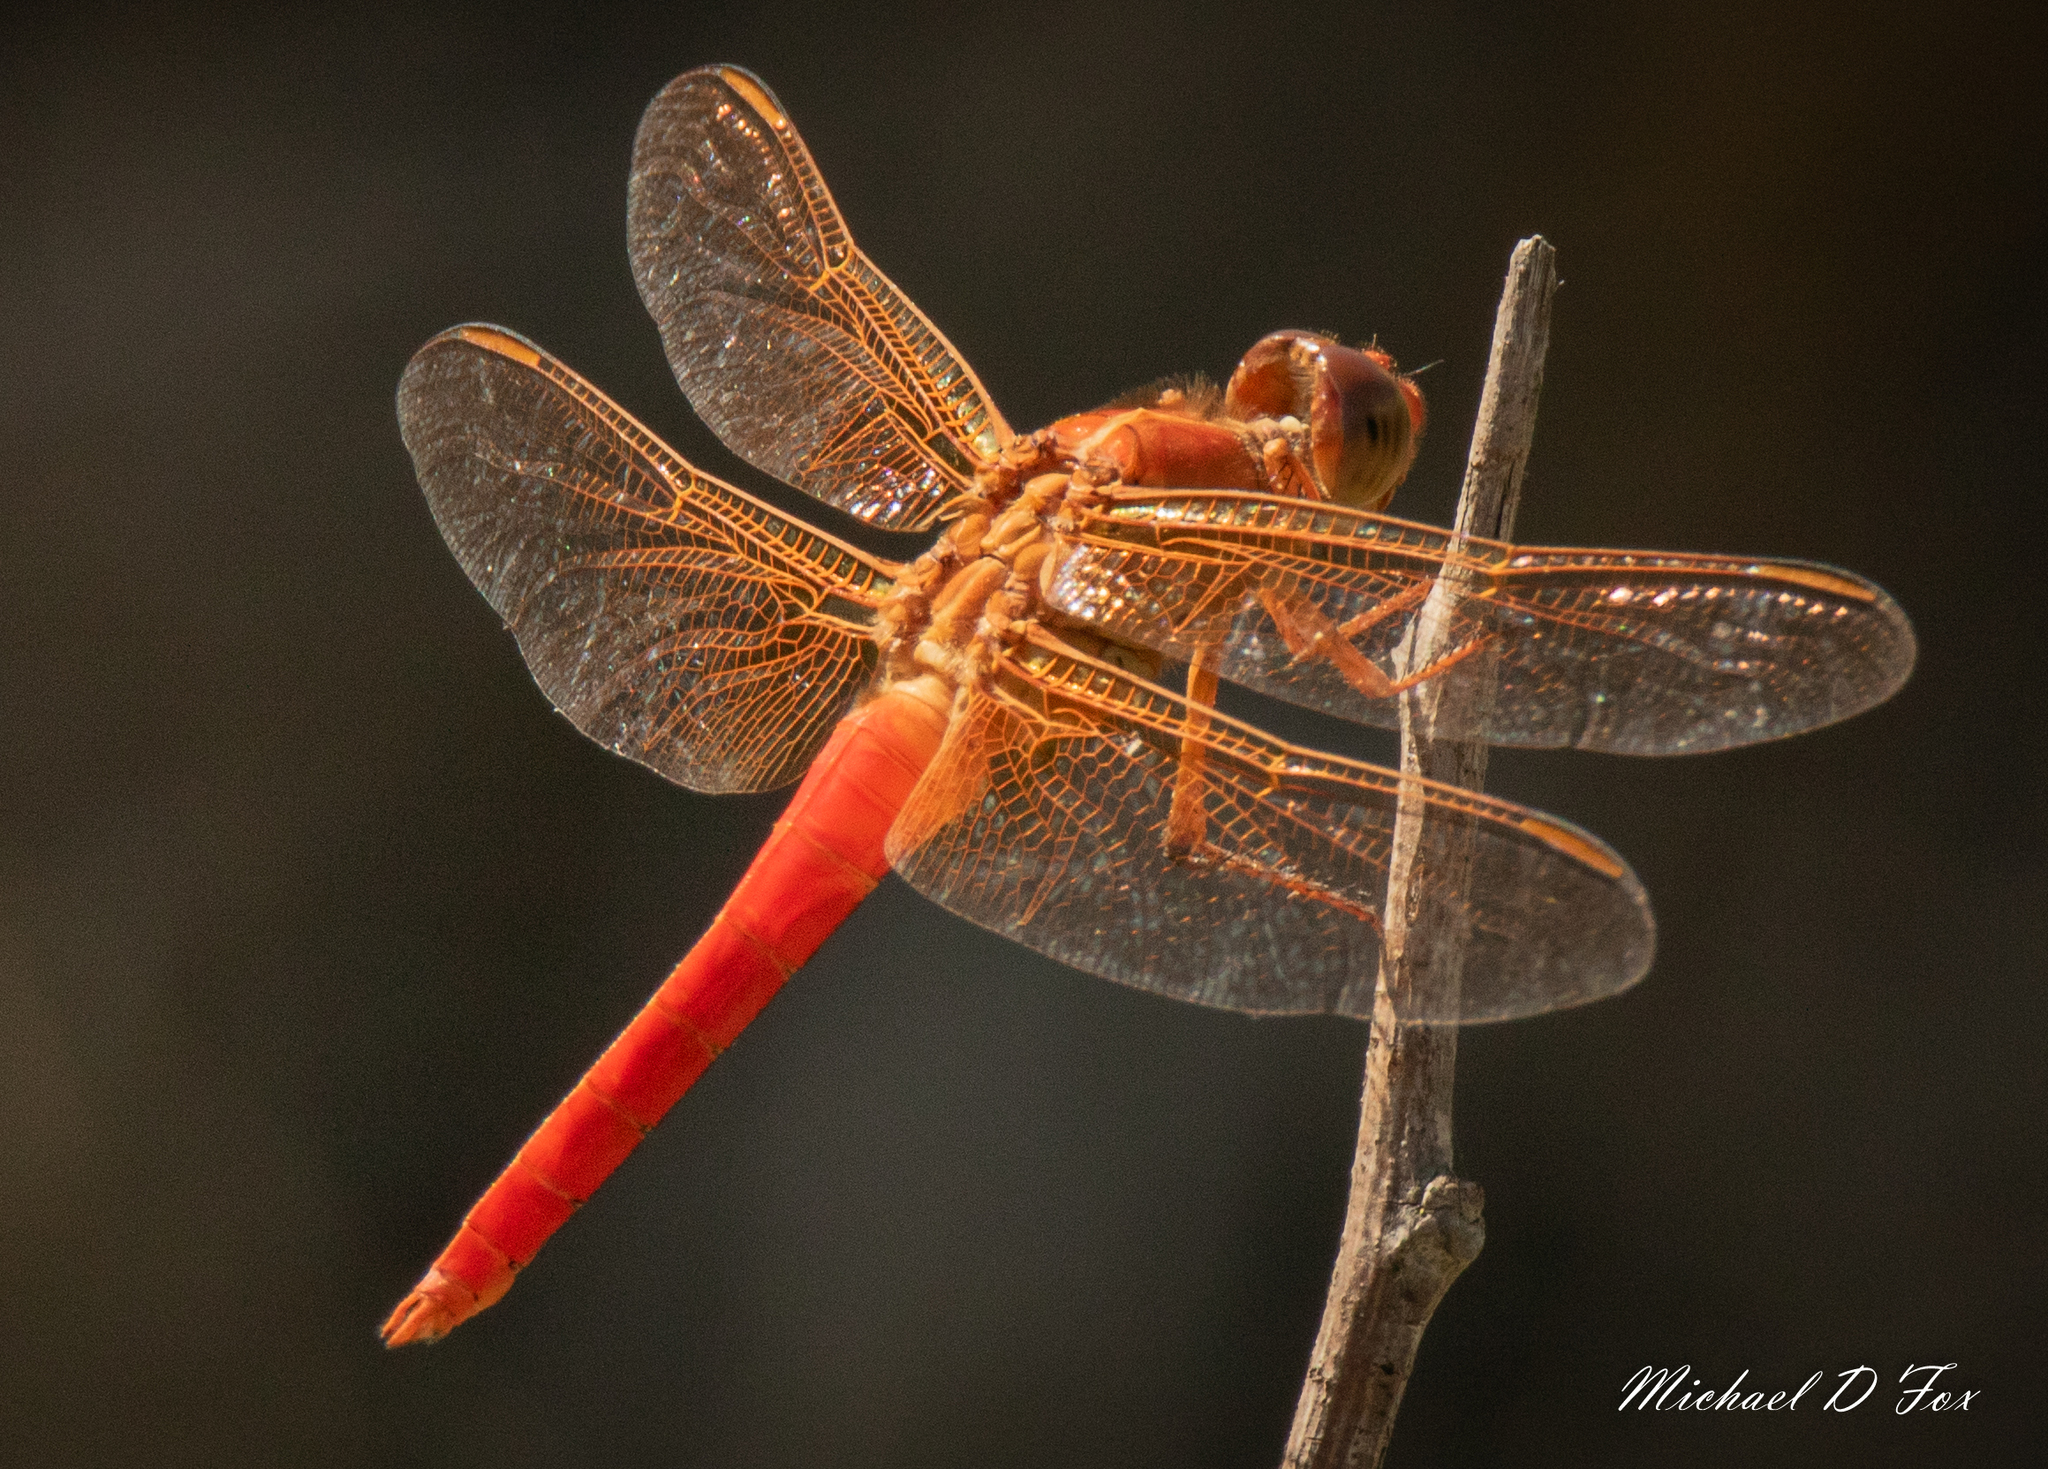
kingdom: Animalia
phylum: Arthropoda
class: Insecta
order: Odonata
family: Libellulidae
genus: Libellula
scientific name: Libellula croceipennis
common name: Neon skimmer
